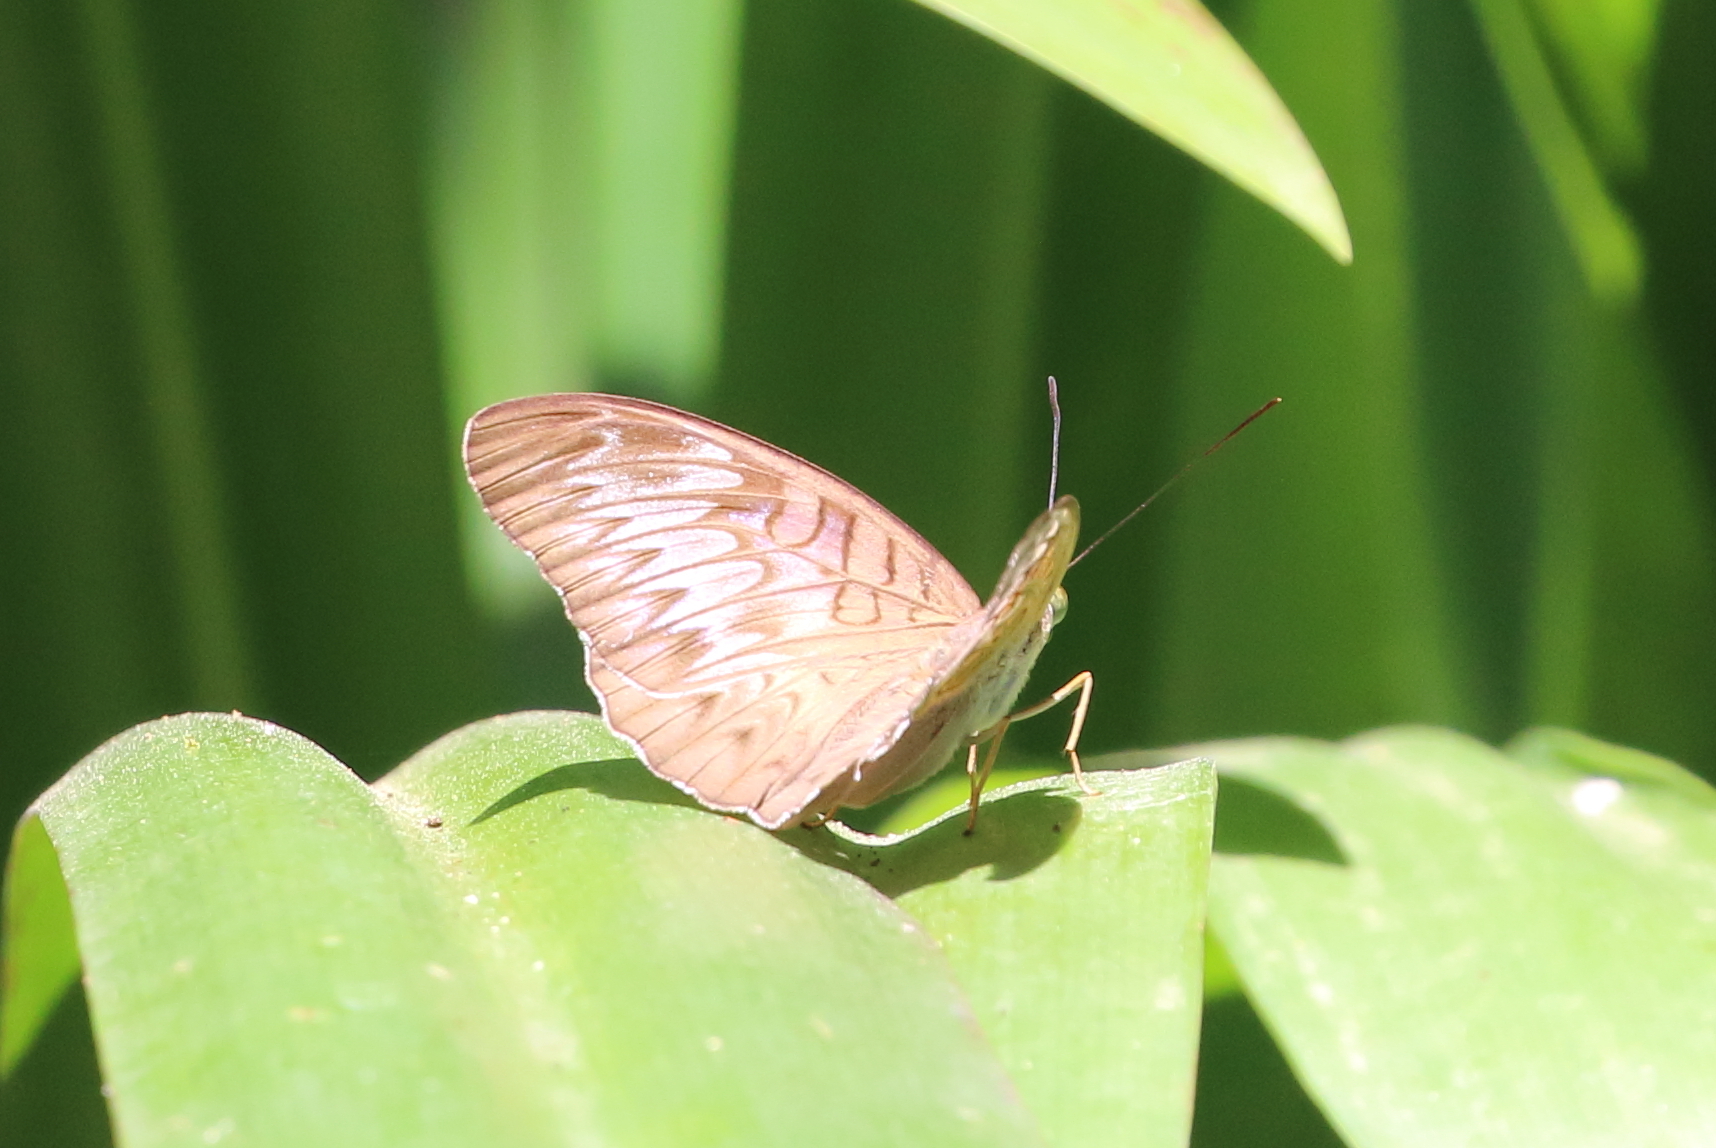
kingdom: Animalia
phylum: Arthropoda
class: Insecta
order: Lepidoptera
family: Nymphalidae
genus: Tanaecia
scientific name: Tanaecia pelea
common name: Malay viscount
